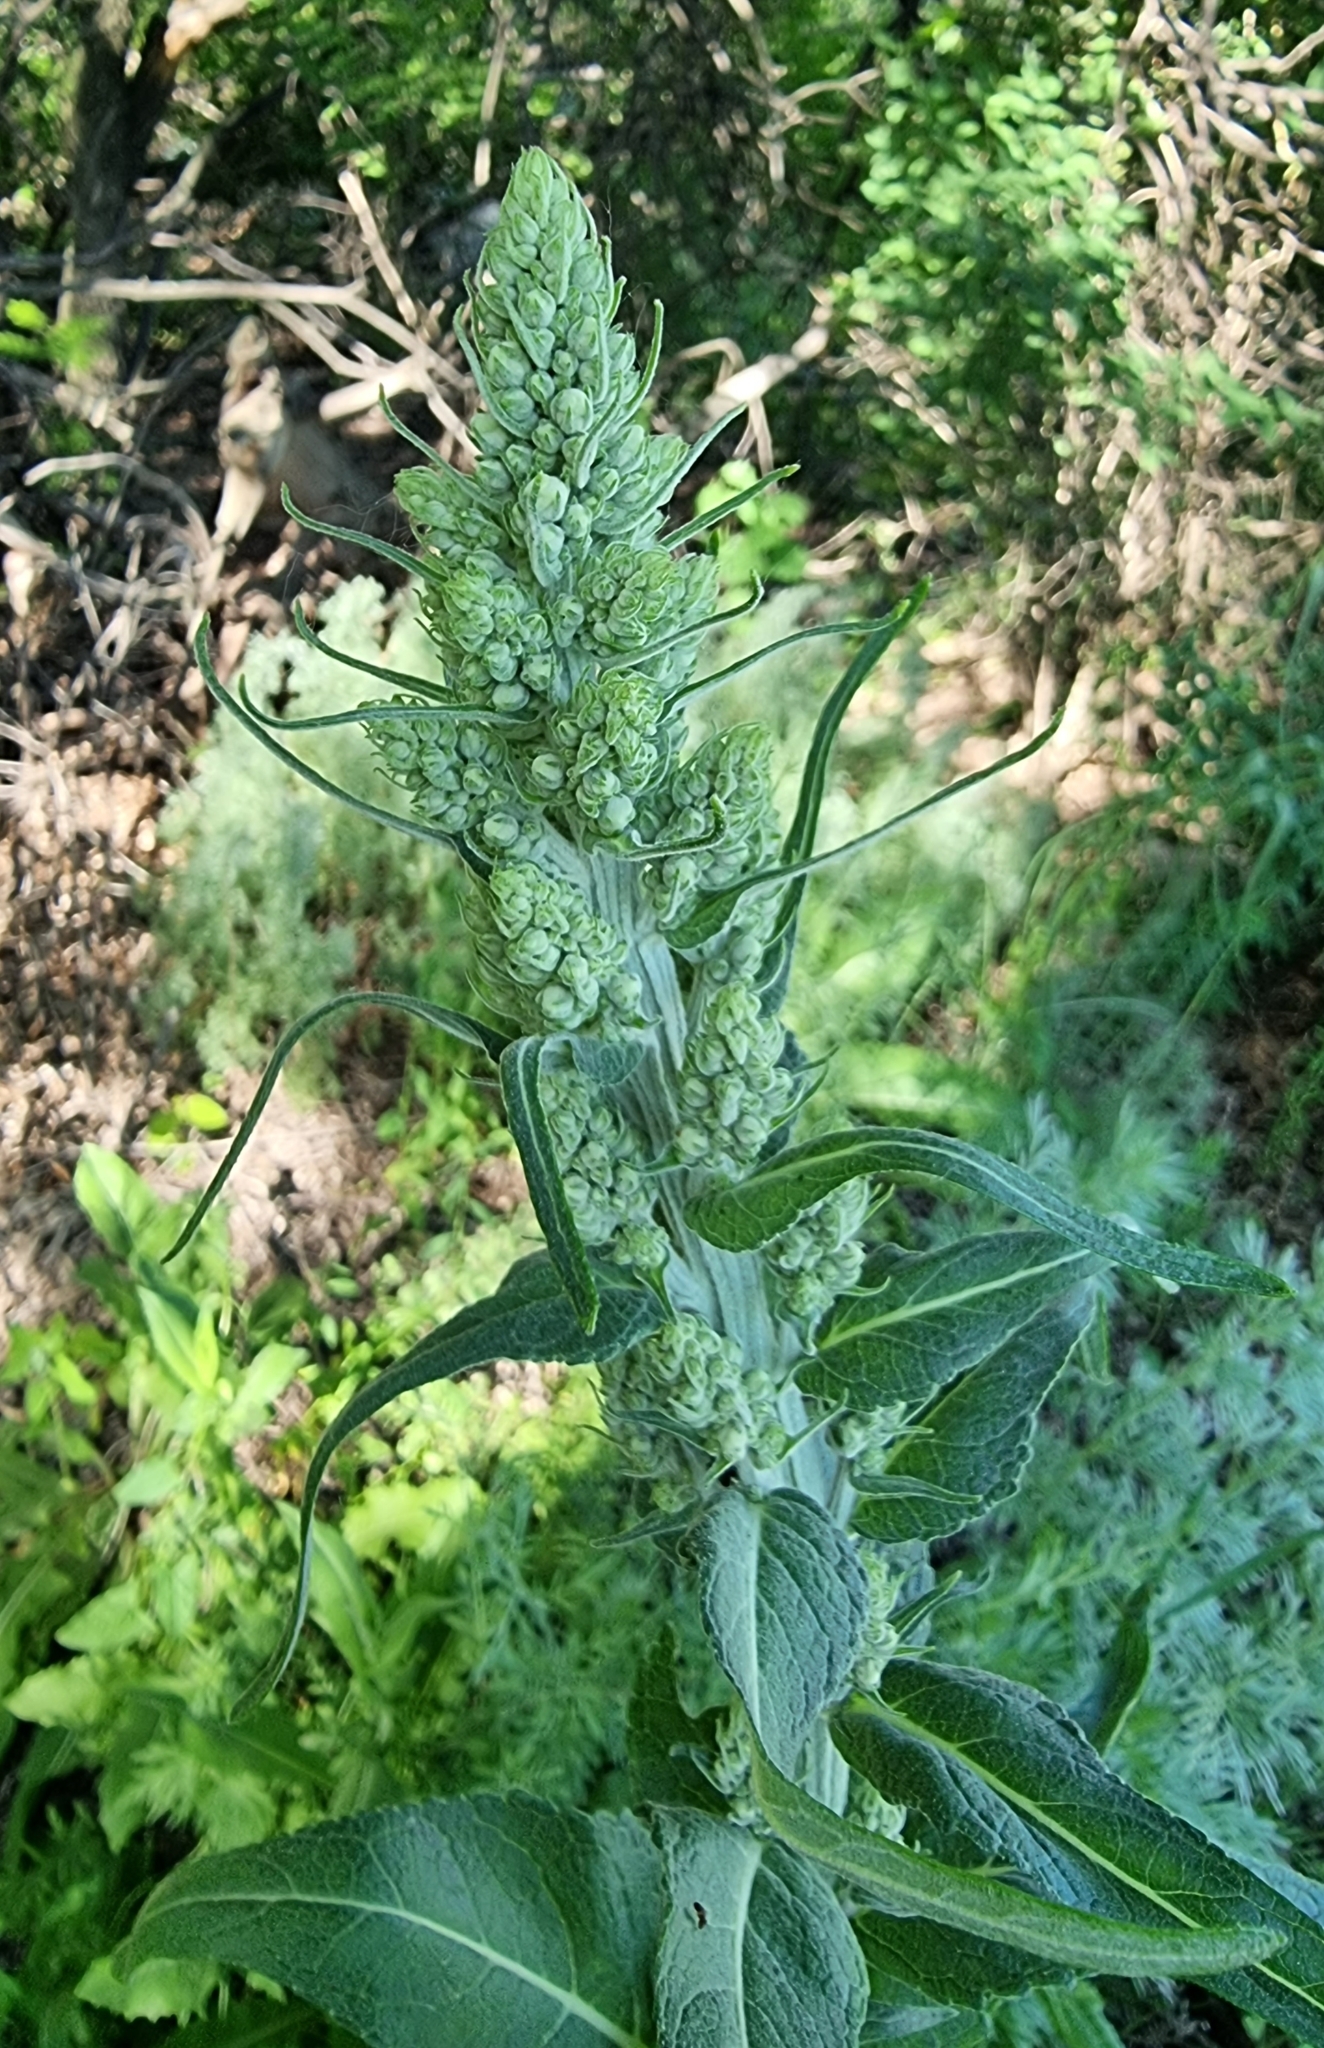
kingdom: Plantae
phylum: Tracheophyta
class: Magnoliopsida
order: Lamiales
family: Scrophulariaceae
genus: Verbascum
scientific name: Verbascum lychnitis
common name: White mullein
